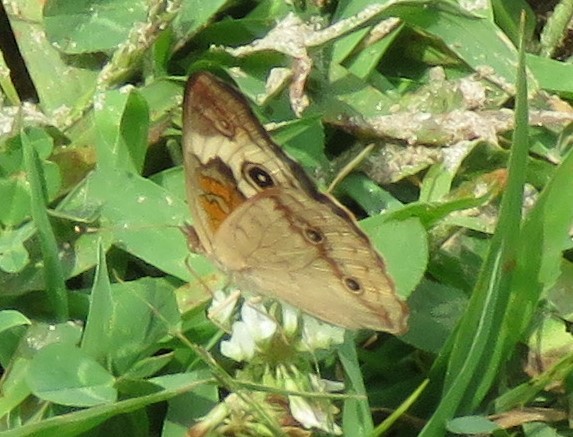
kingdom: Animalia
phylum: Arthropoda
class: Insecta
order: Lepidoptera
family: Nymphalidae
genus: Junonia
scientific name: Junonia coenia
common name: Common buckeye
